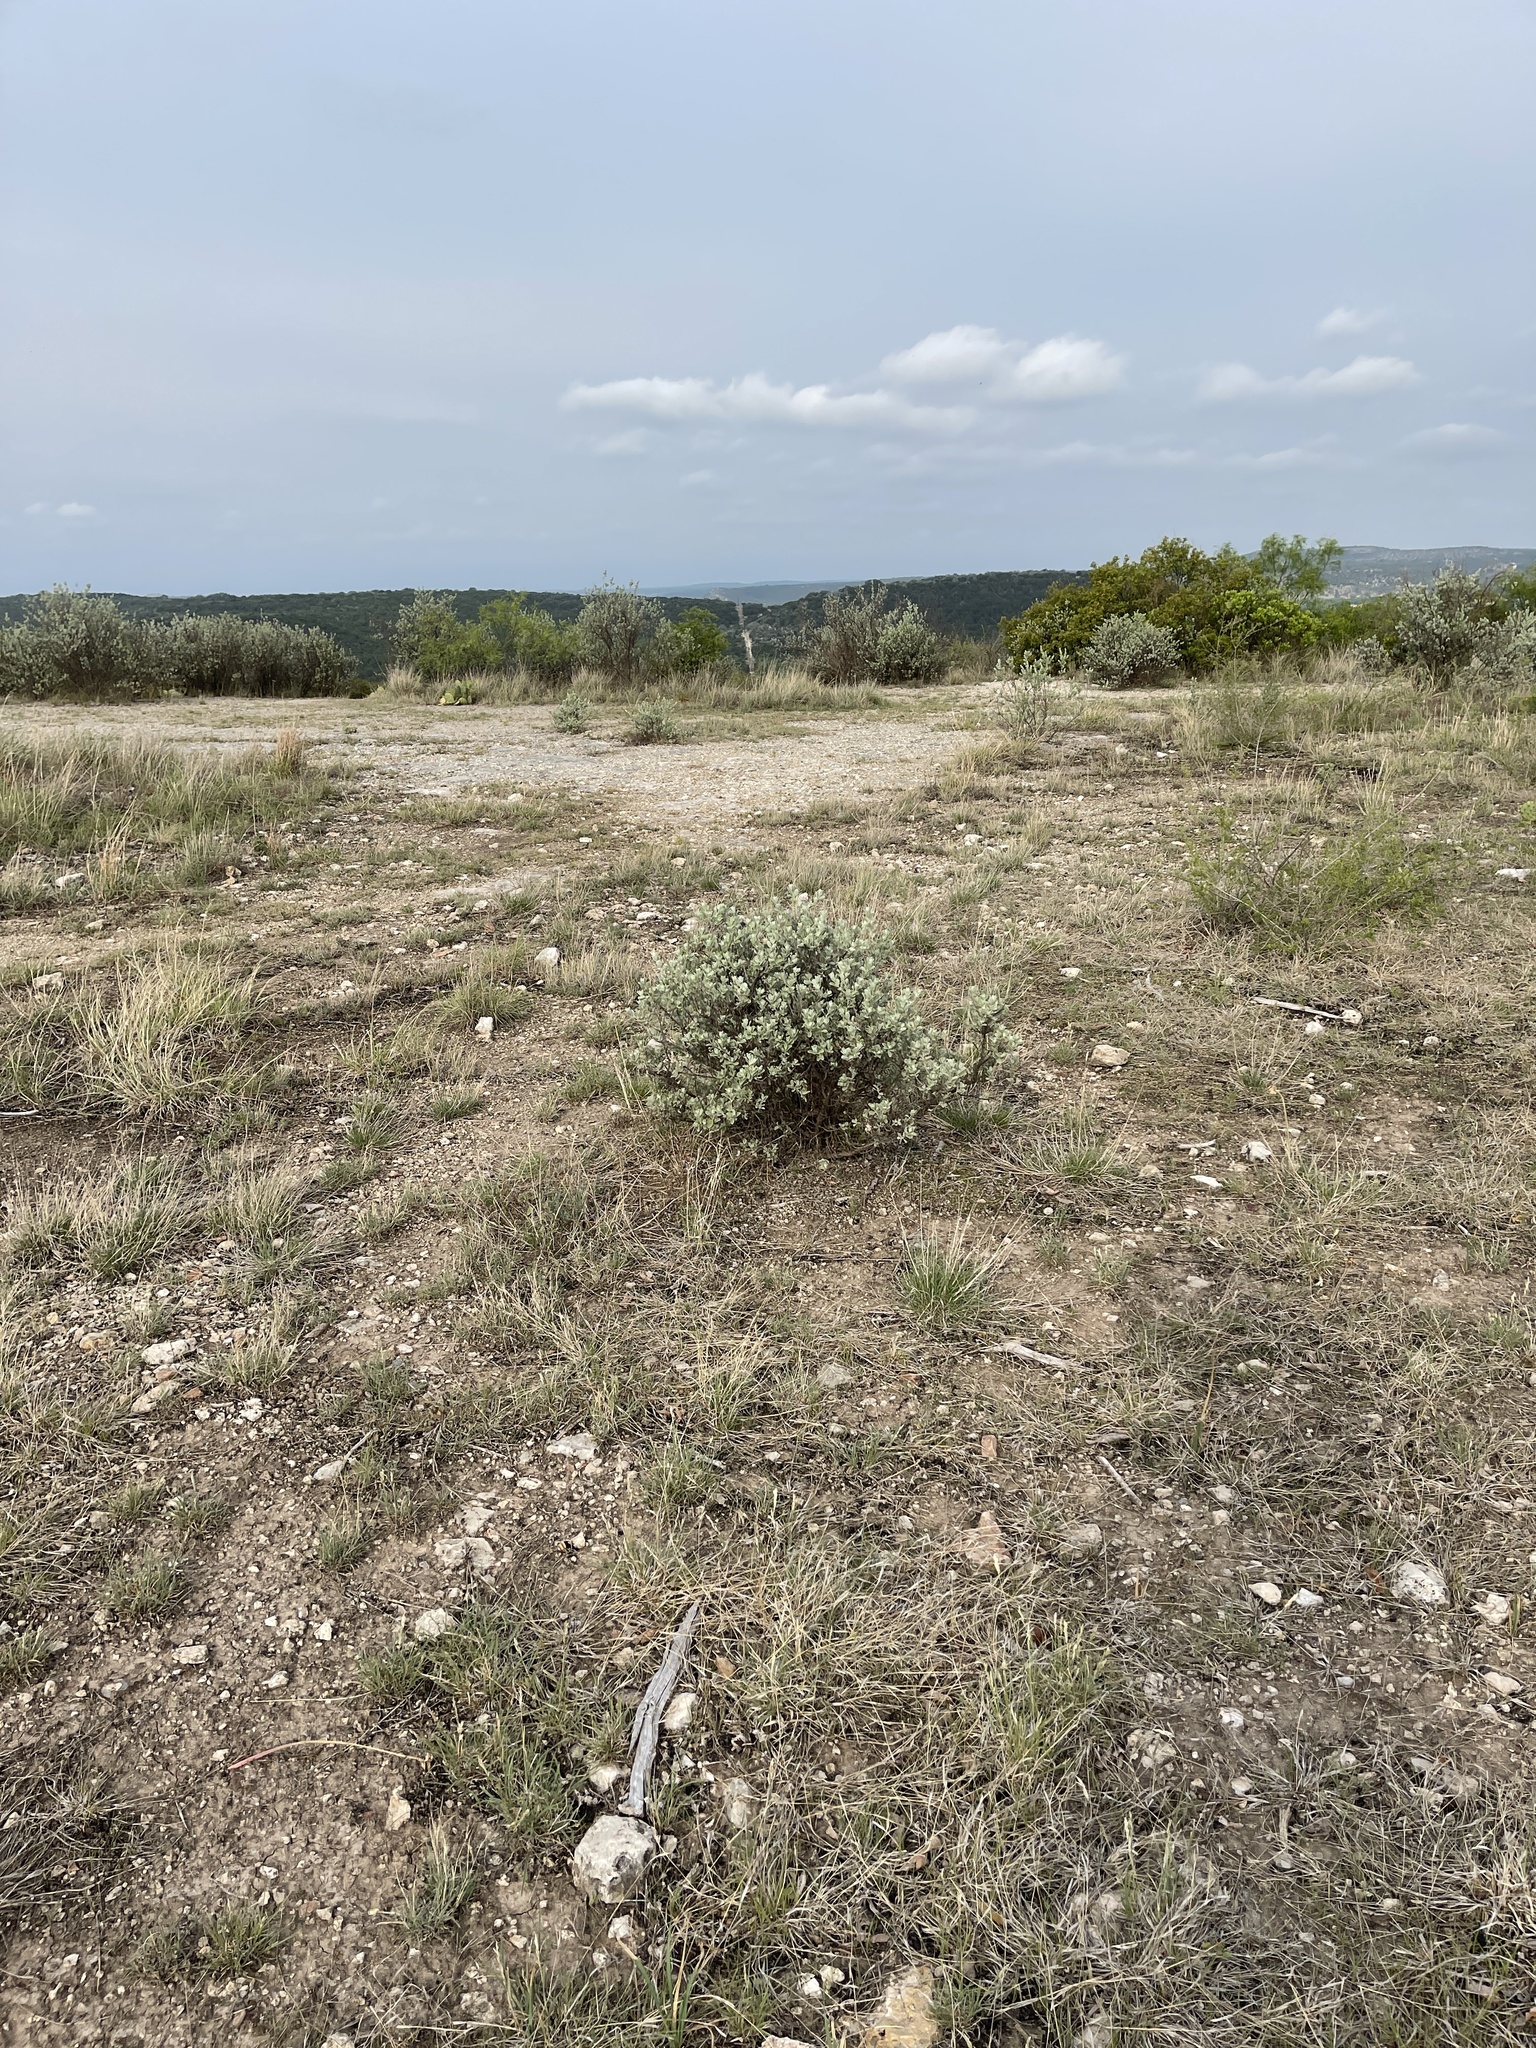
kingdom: Plantae
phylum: Tracheophyta
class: Magnoliopsida
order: Lamiales
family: Scrophulariaceae
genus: Leucophyllum
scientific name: Leucophyllum frutescens
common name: Texas silverleaf
